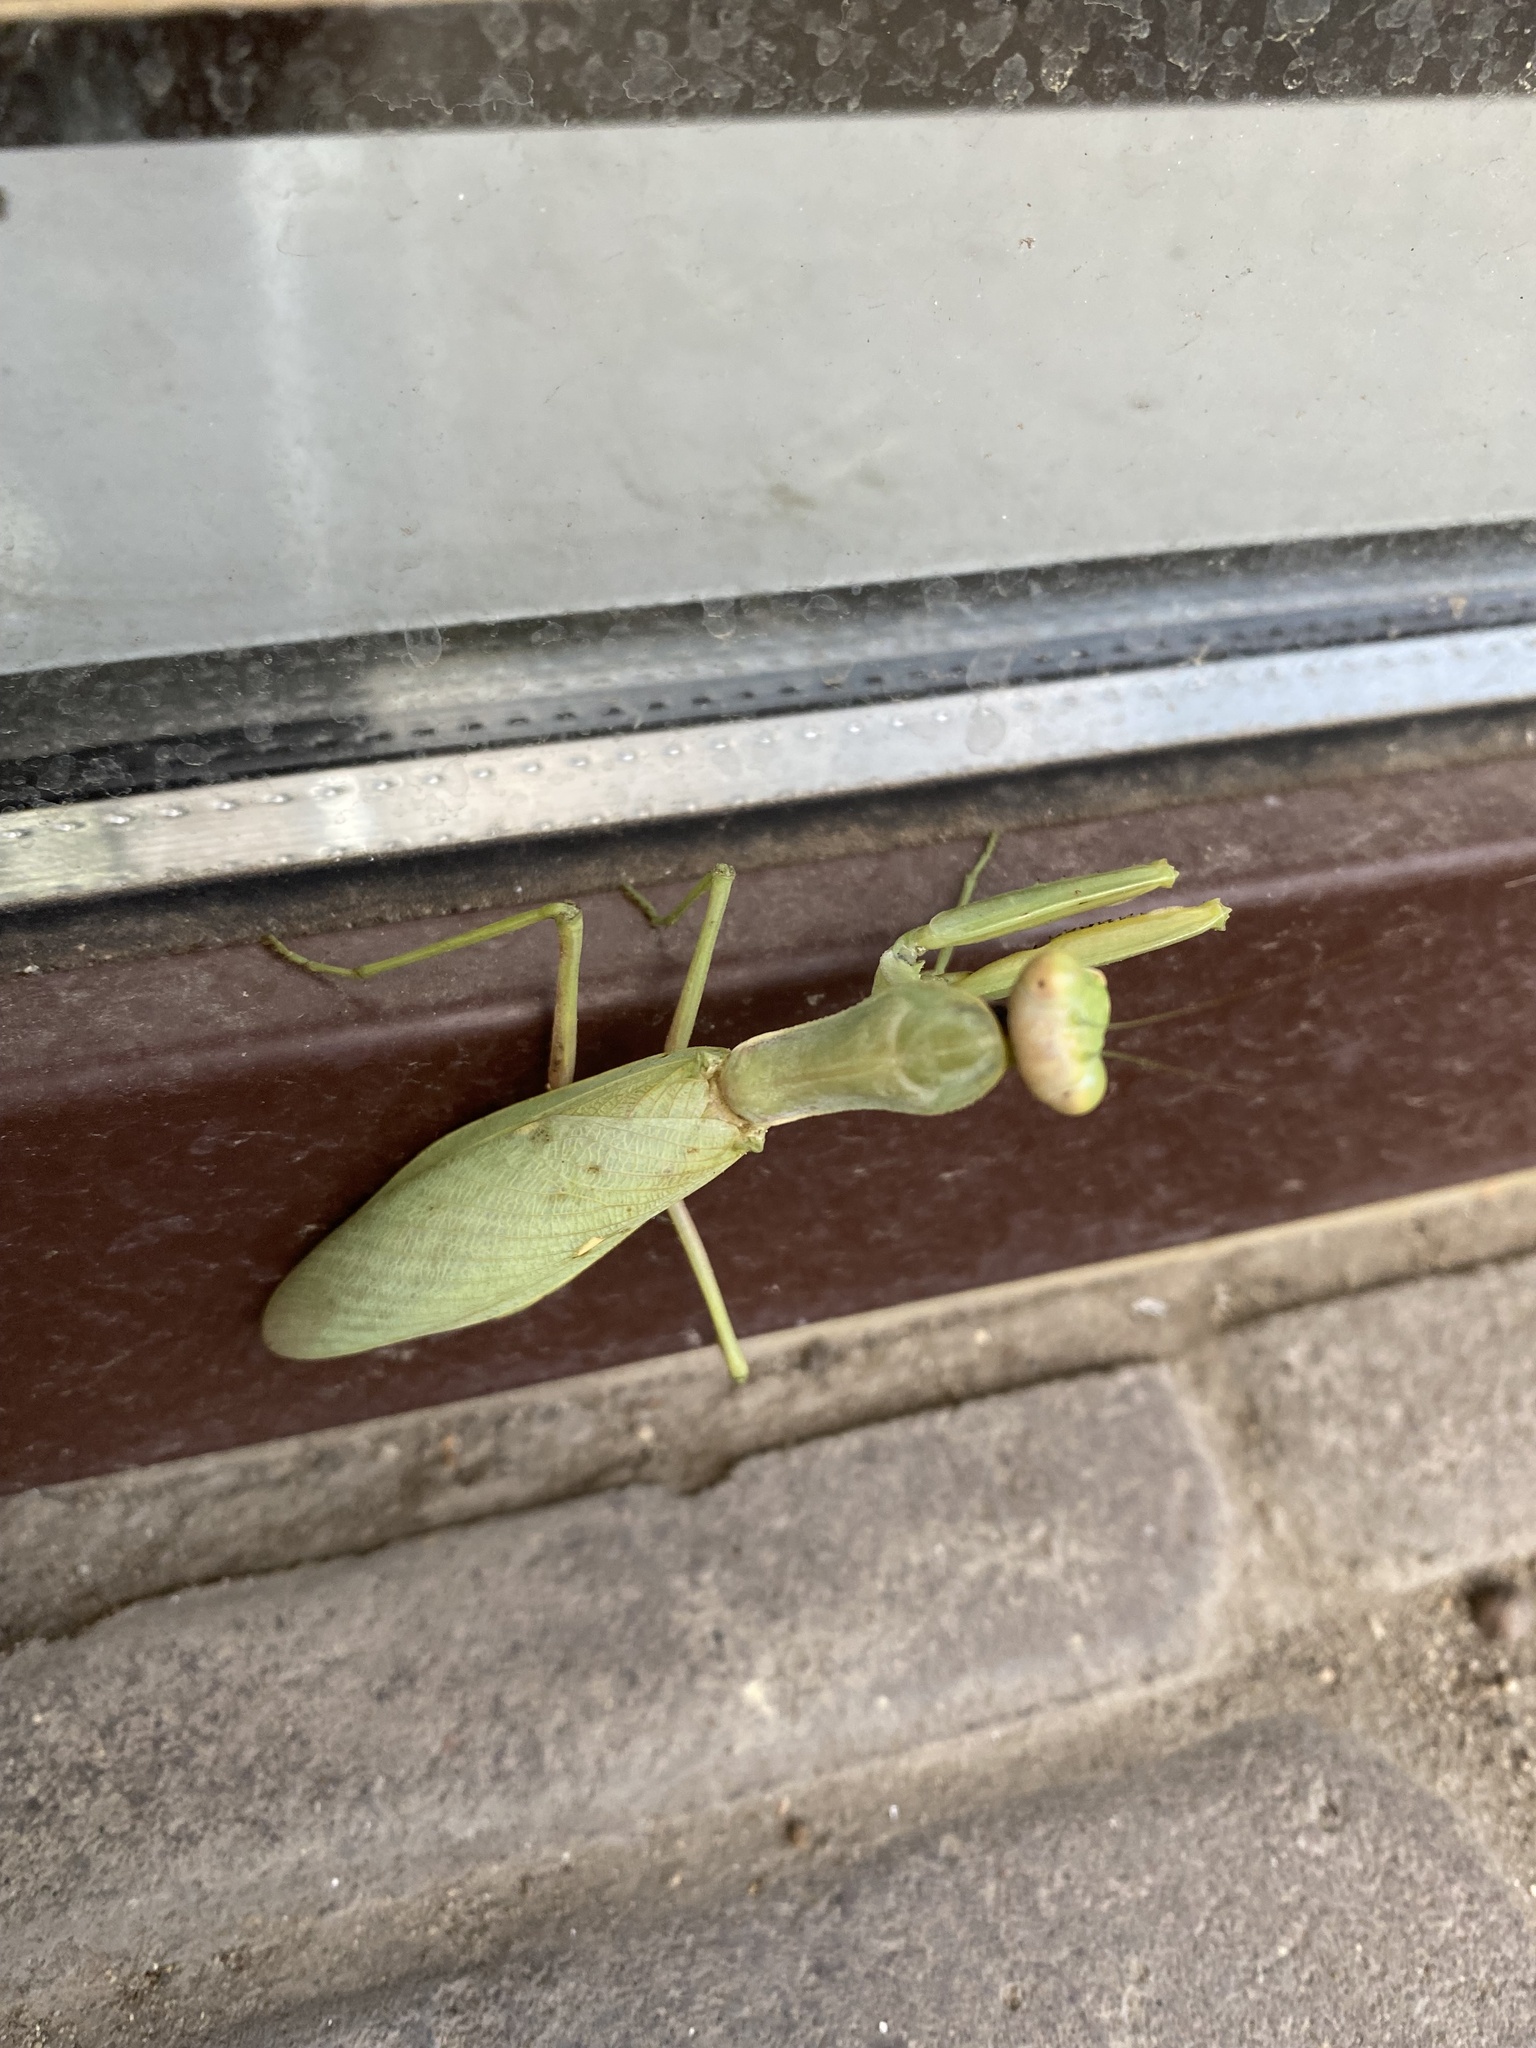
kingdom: Animalia
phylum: Arthropoda
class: Insecta
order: Mantodea
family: Mantidae
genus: Hierodula
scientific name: Hierodula transcaucasica
